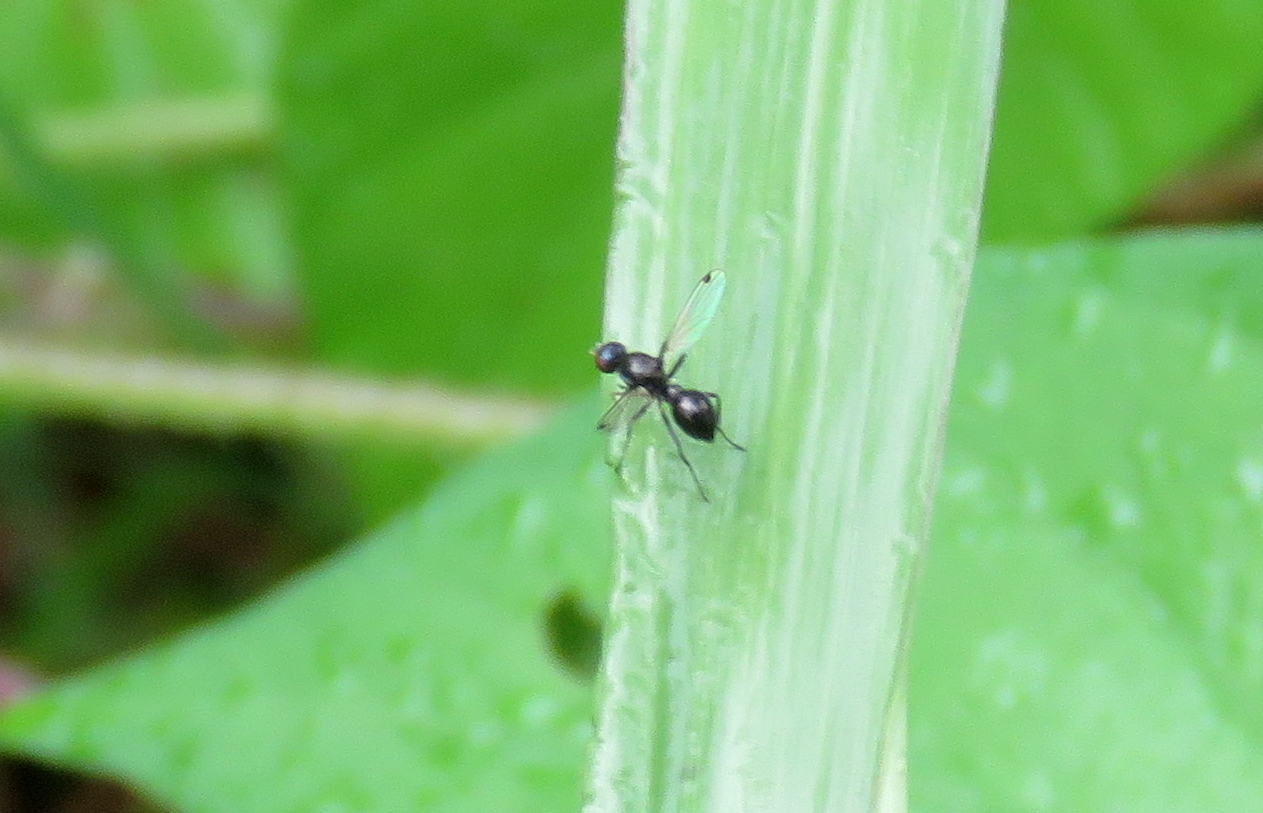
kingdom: Animalia
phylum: Arthropoda
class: Insecta
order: Diptera
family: Sepsidae
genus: Parapalaeosepsis
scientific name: Parapalaeosepsis plebeia
